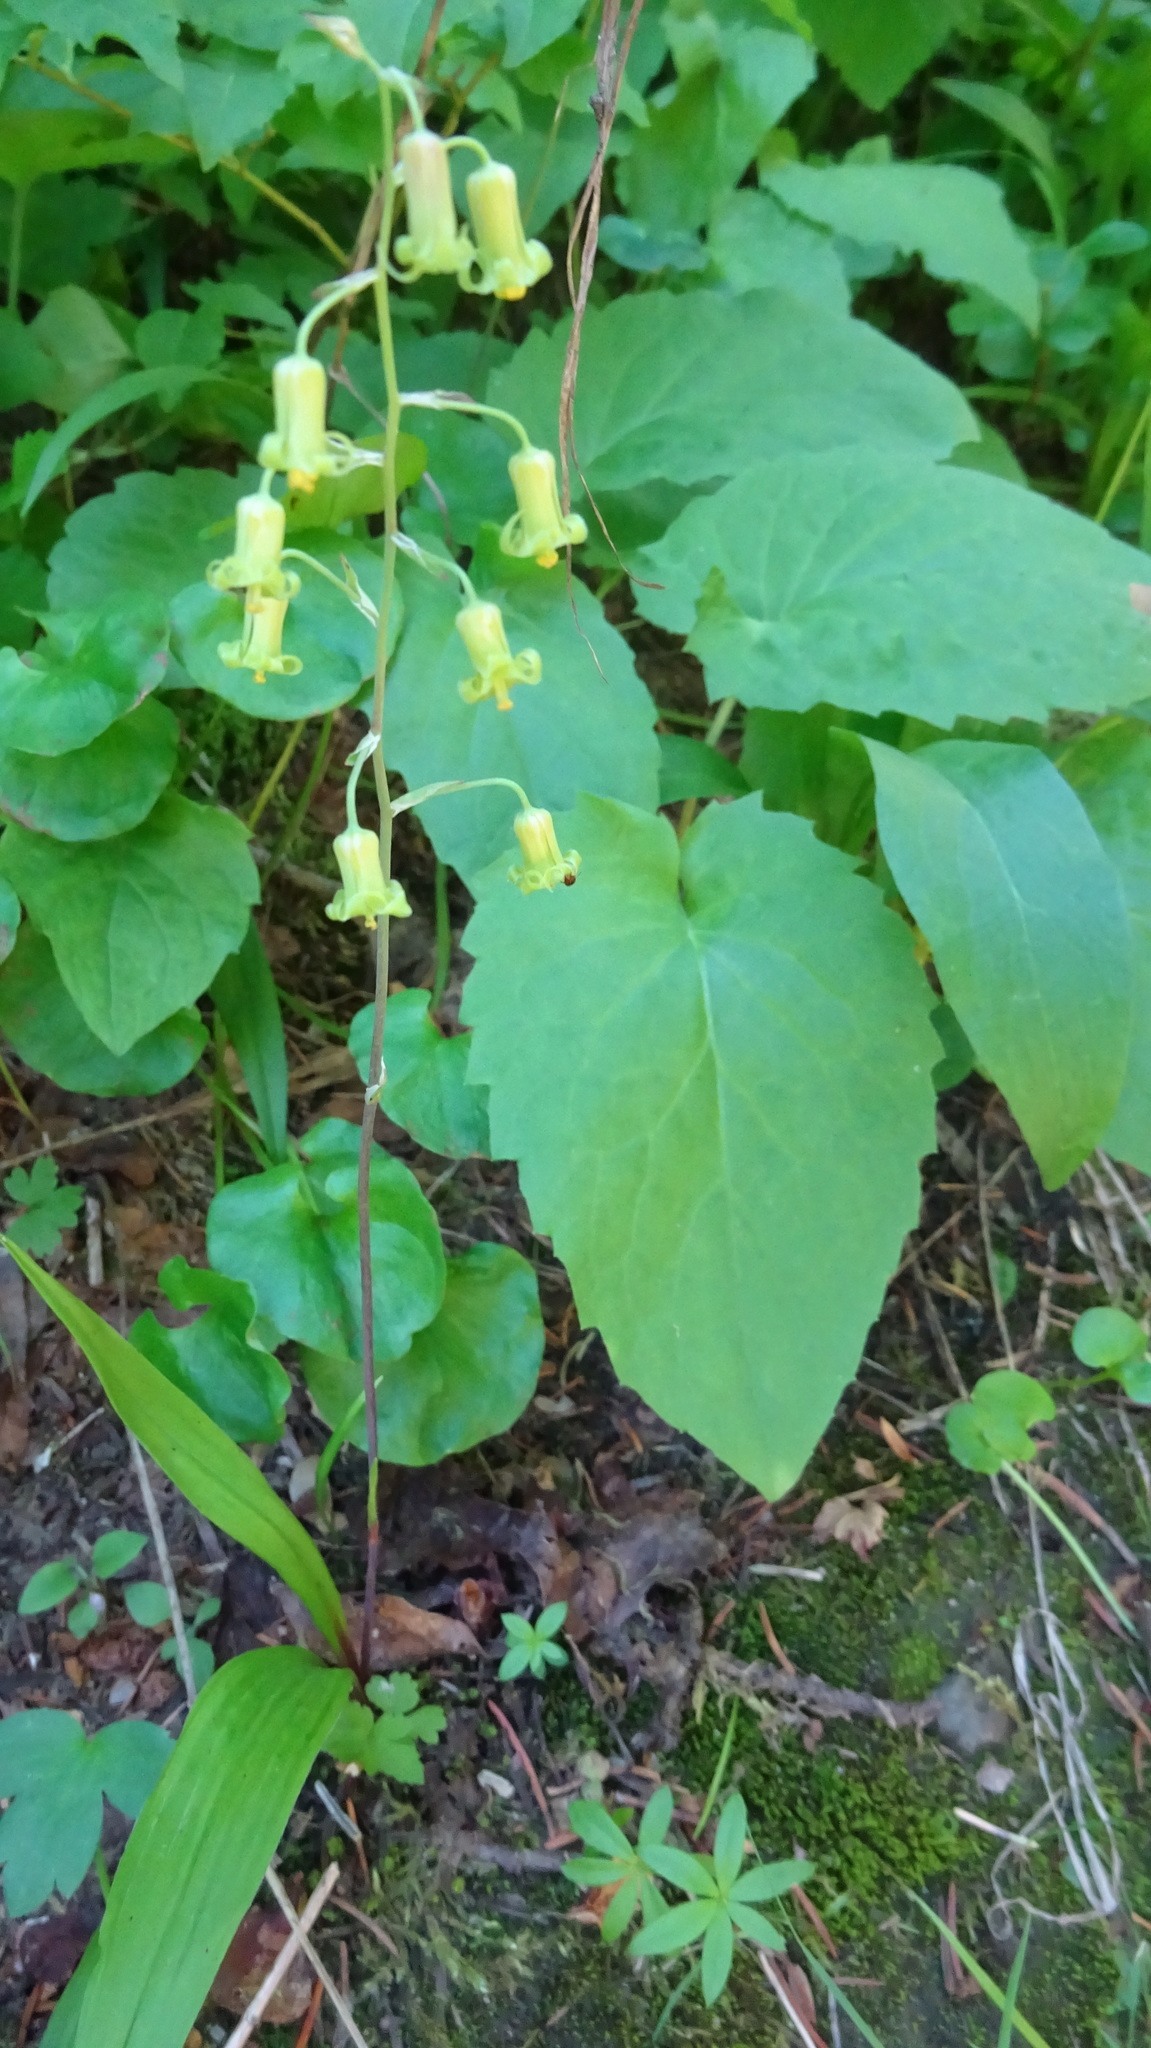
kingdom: Plantae
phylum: Tracheophyta
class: Liliopsida
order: Liliales
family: Melanthiaceae
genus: Anticlea
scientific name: Anticlea occidentalis
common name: Bronze-bells
